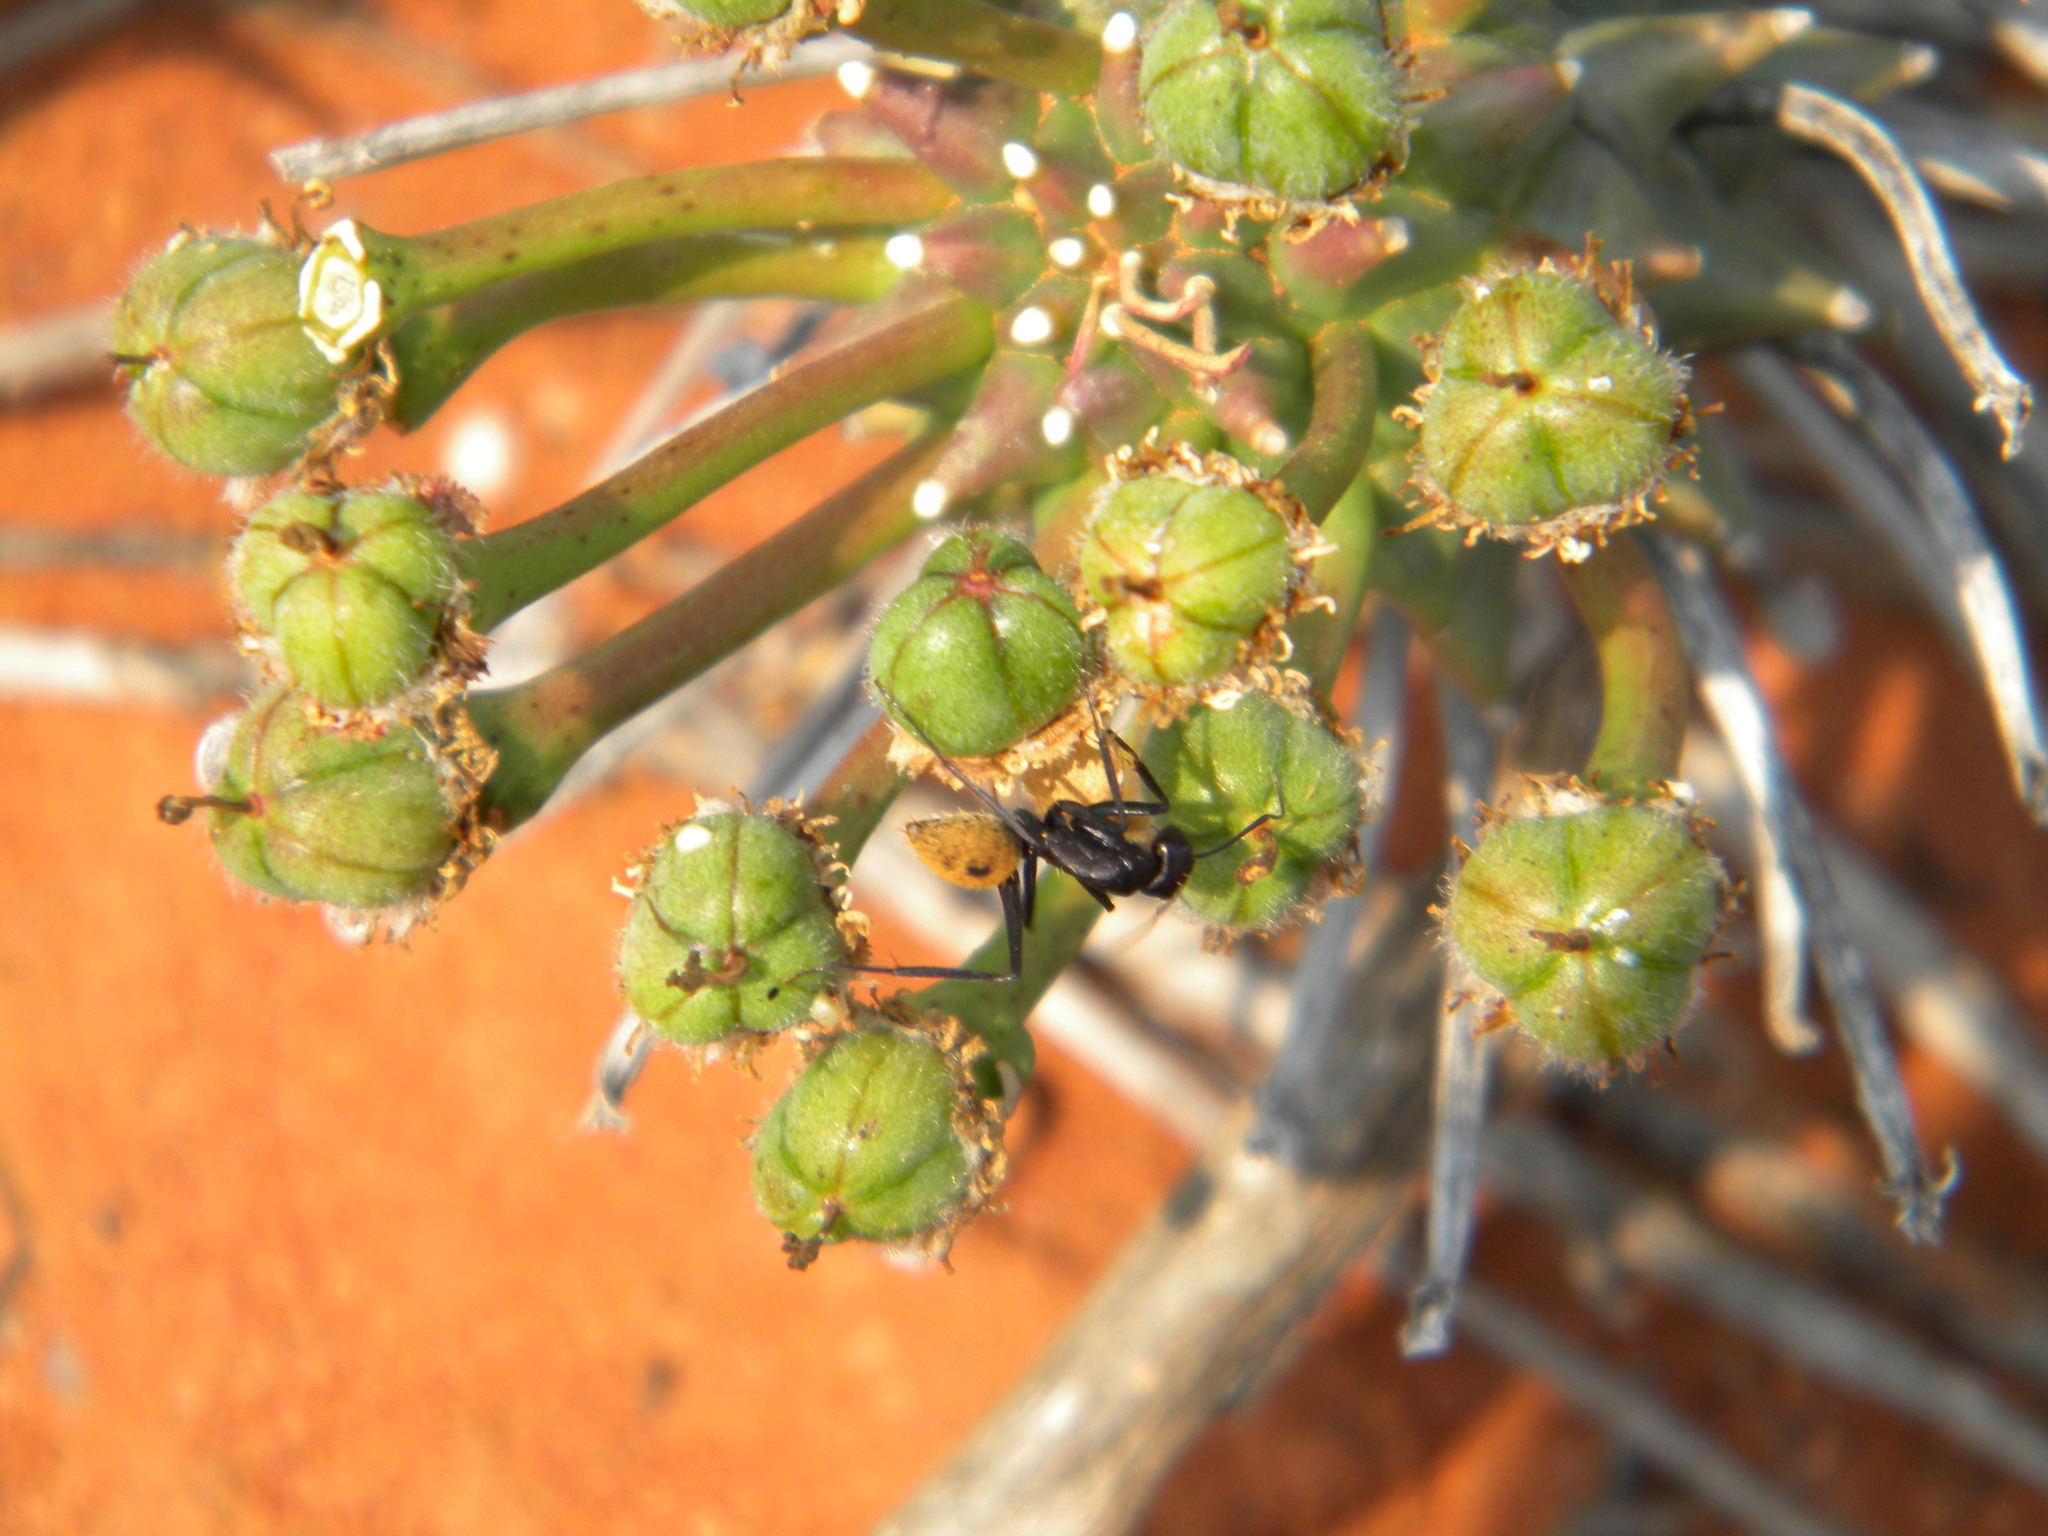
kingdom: Animalia
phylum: Arthropoda
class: Insecta
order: Hymenoptera
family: Formicidae
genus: Camponotus
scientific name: Camponotus fulvopilosus
